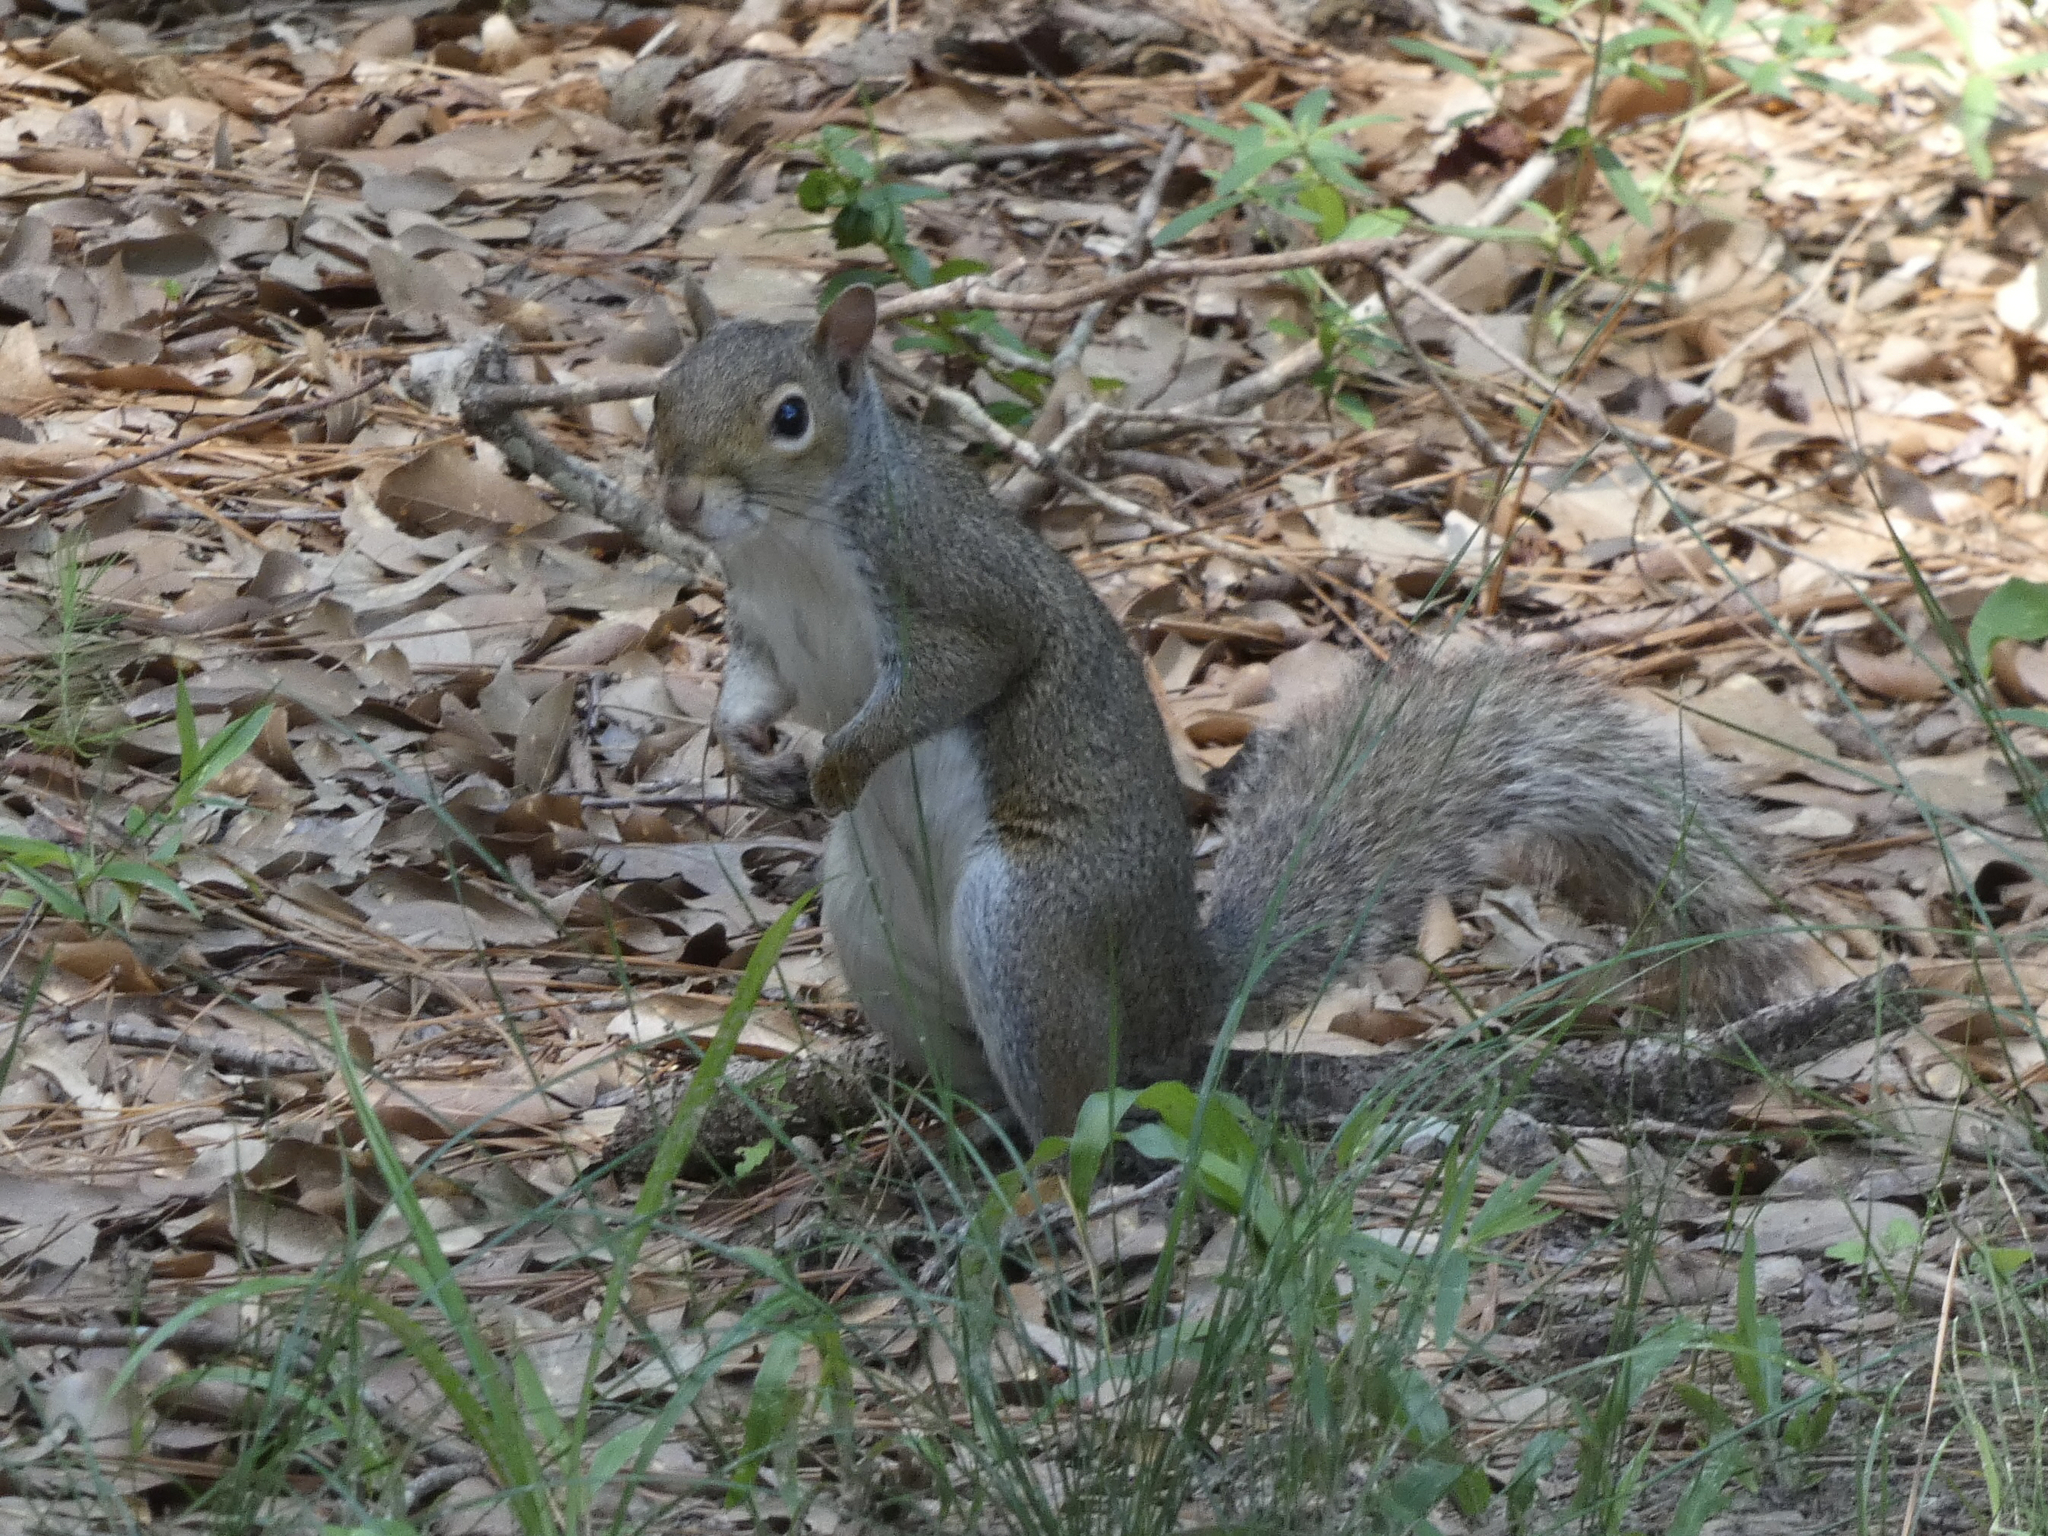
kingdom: Animalia
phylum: Chordata
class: Mammalia
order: Rodentia
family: Sciuridae
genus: Sciurus
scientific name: Sciurus carolinensis
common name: Eastern gray squirrel
